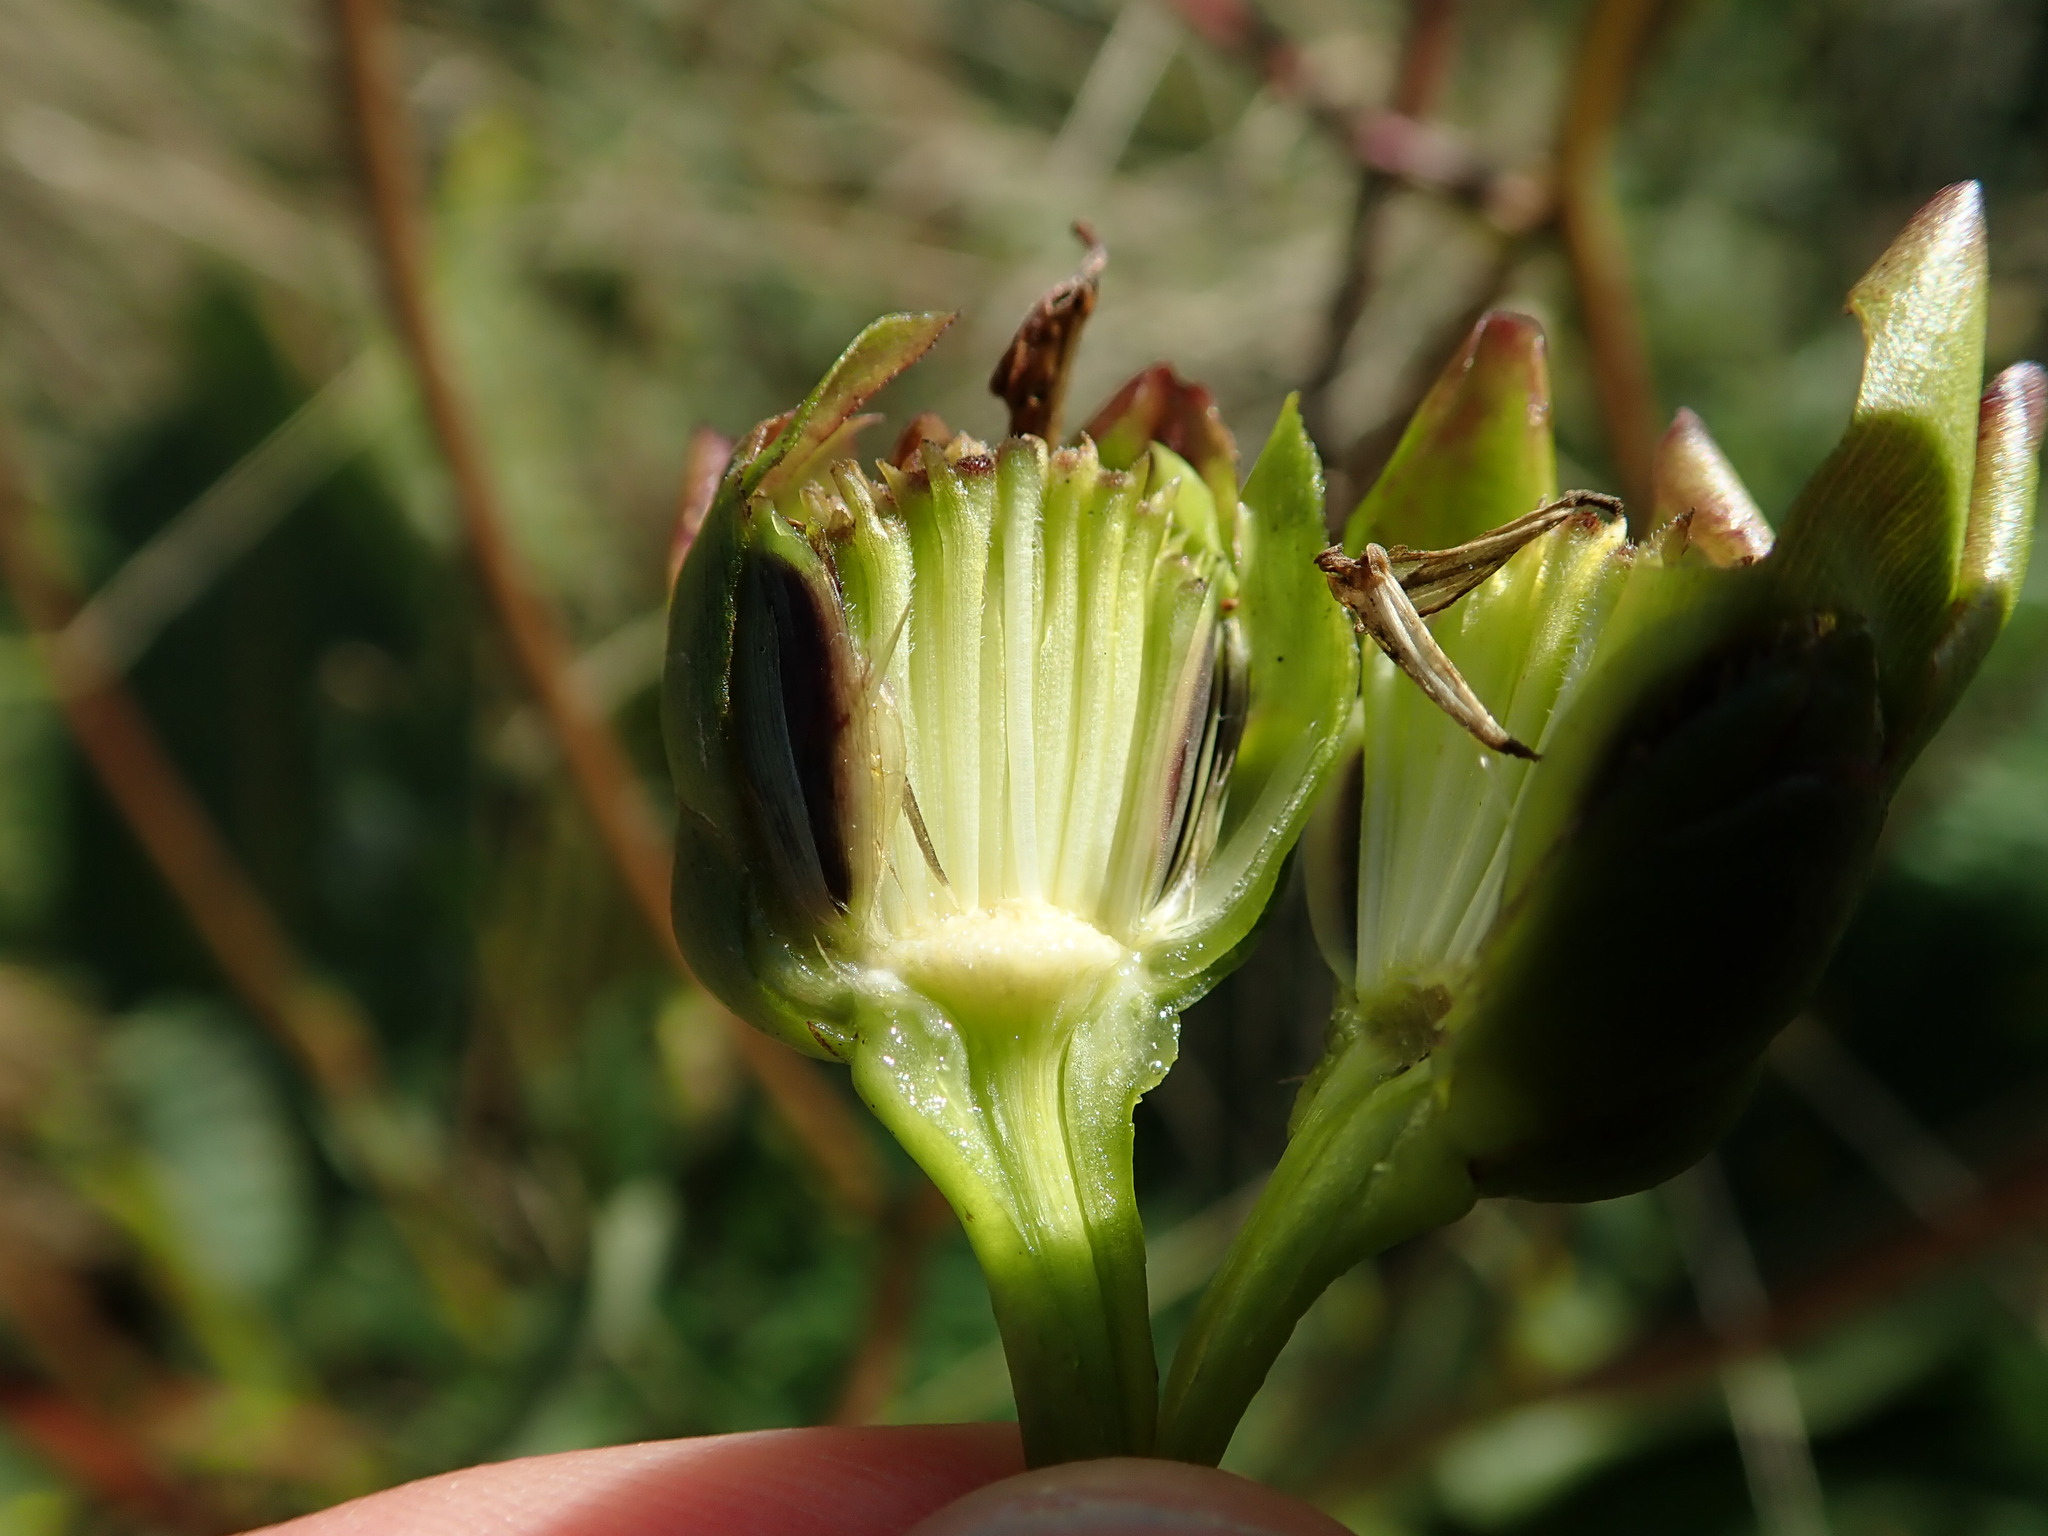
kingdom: Plantae
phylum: Tracheophyta
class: Magnoliopsida
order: Asterales
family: Asteraceae
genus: Silphium
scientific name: Silphium terebinthinaceum
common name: Basal-leaf rosinweed
